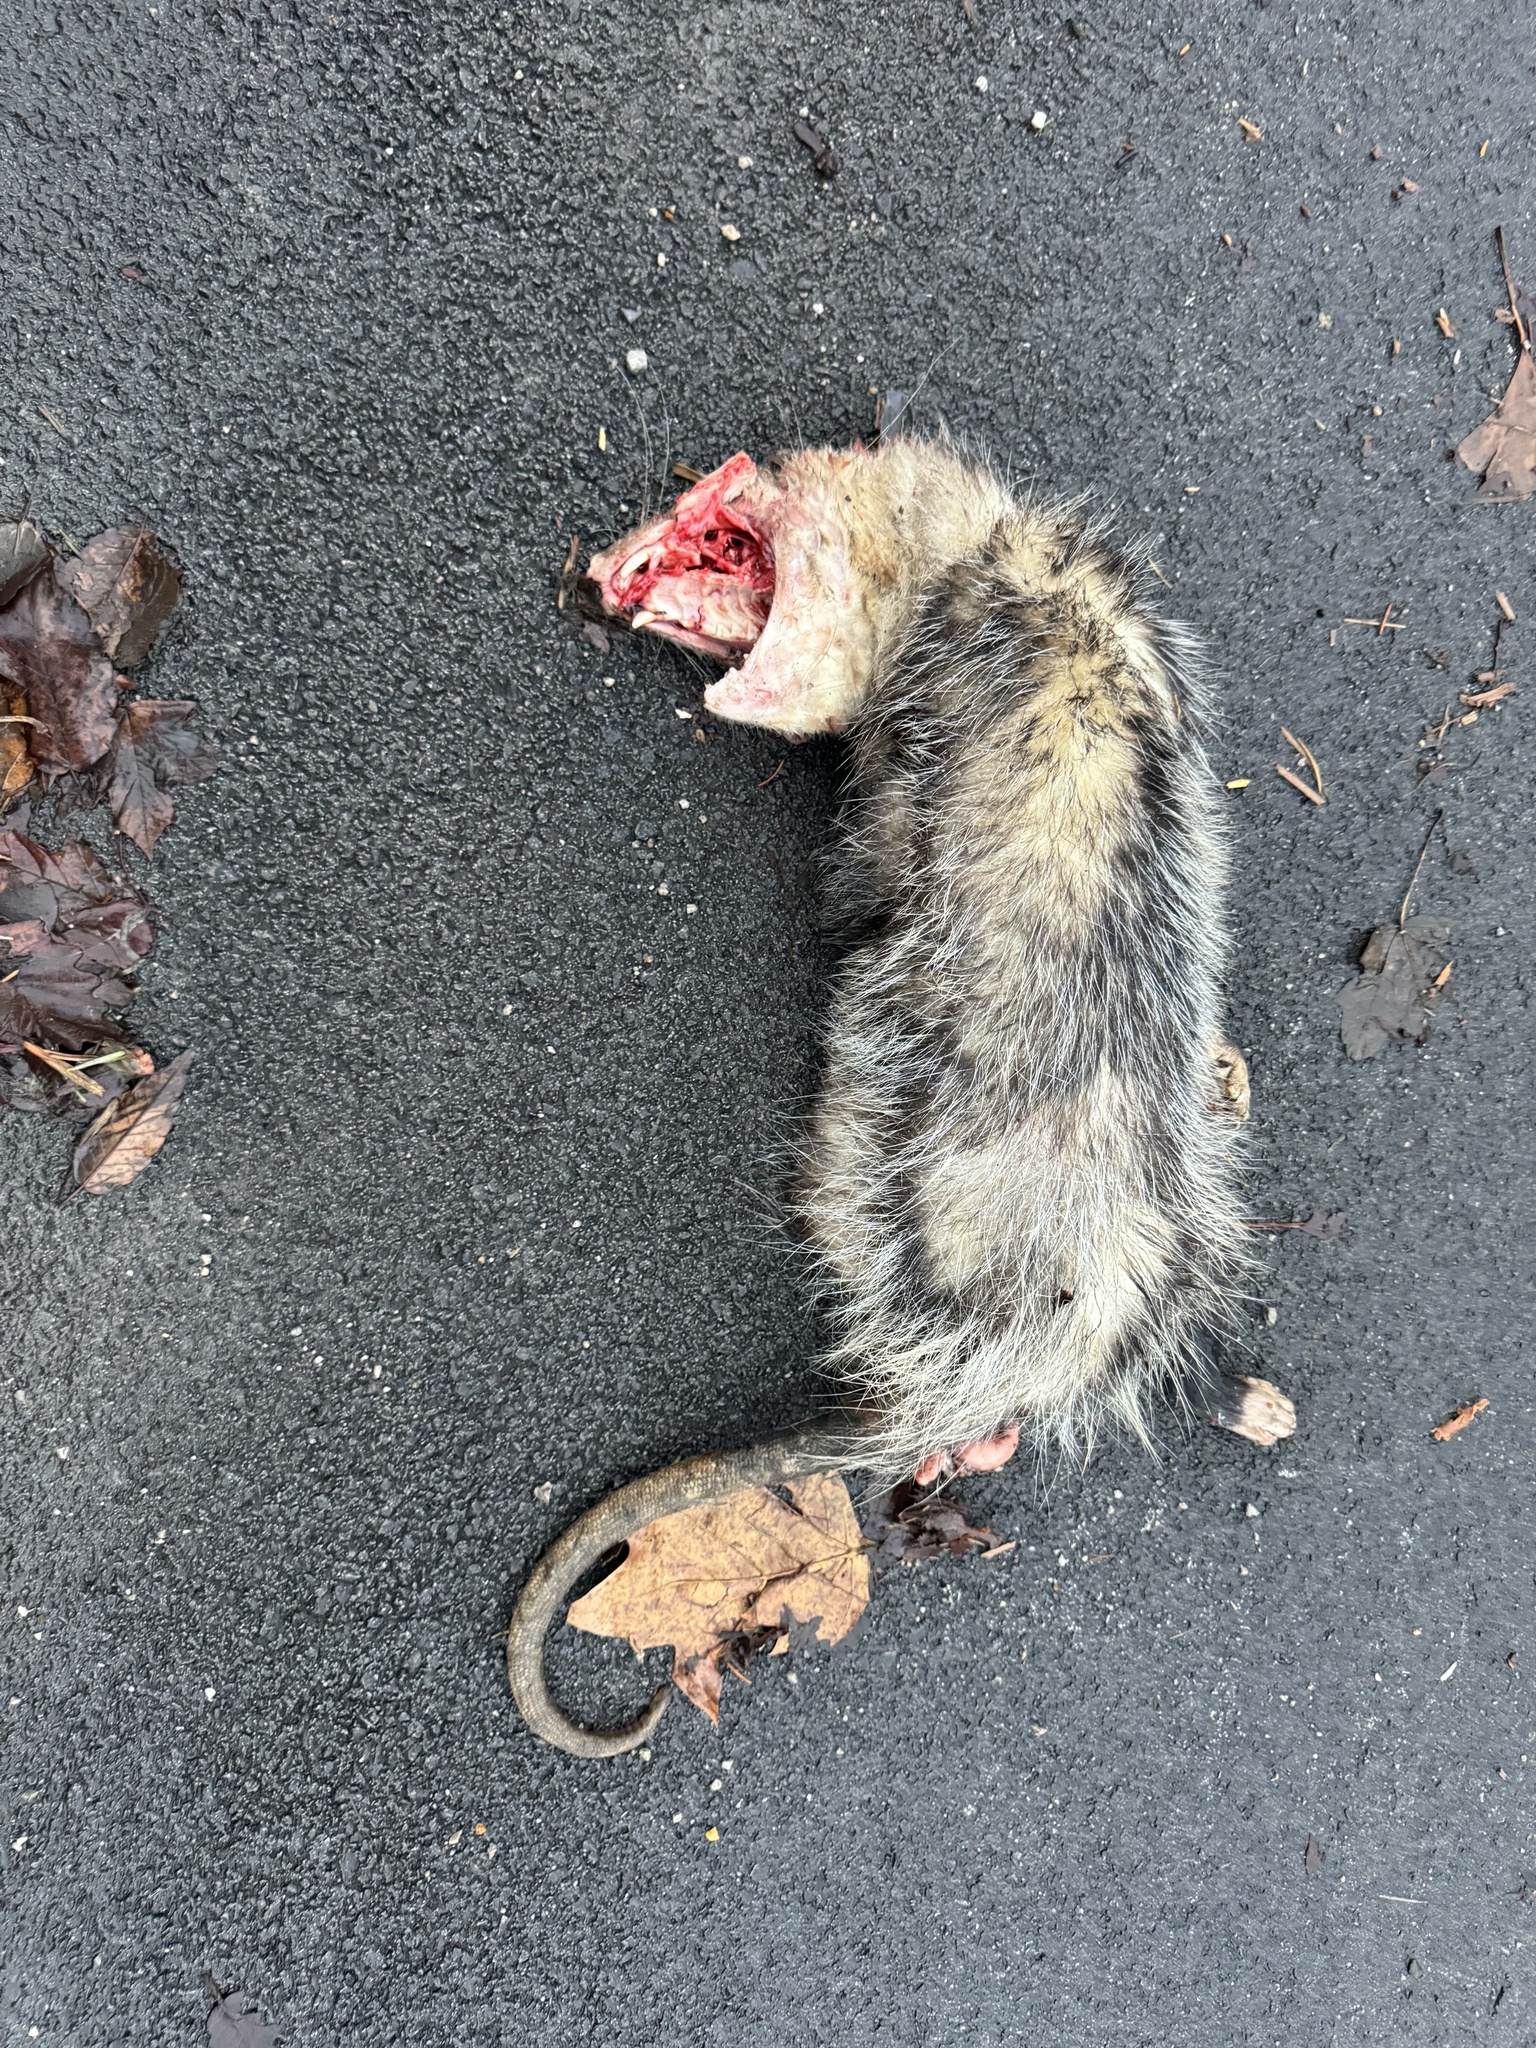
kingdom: Animalia
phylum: Chordata
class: Mammalia
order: Didelphimorphia
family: Didelphidae
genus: Didelphis
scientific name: Didelphis virginiana
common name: Virginia opossum
